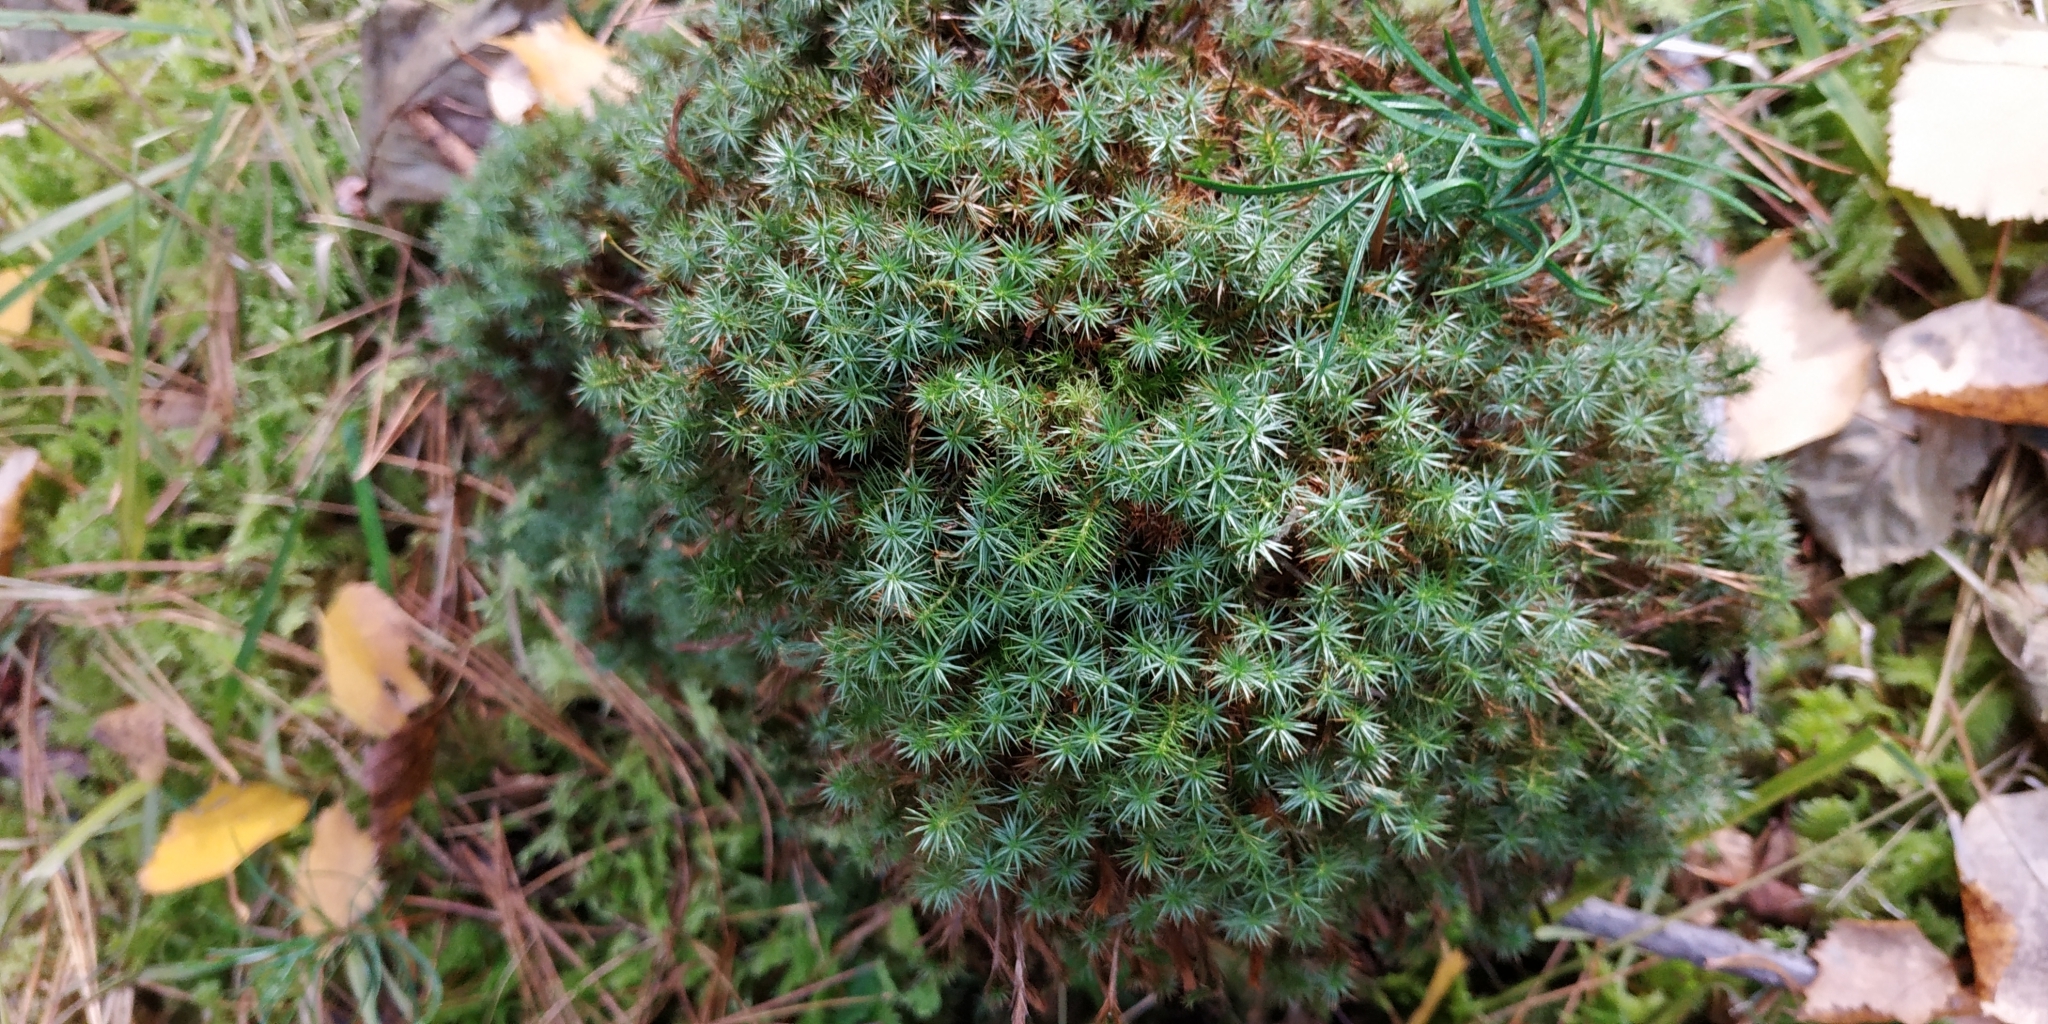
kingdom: Plantae
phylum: Bryophyta
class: Polytrichopsida
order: Polytrichales
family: Polytrichaceae
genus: Polytrichum
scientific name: Polytrichum strictum
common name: Bog haircap moss
